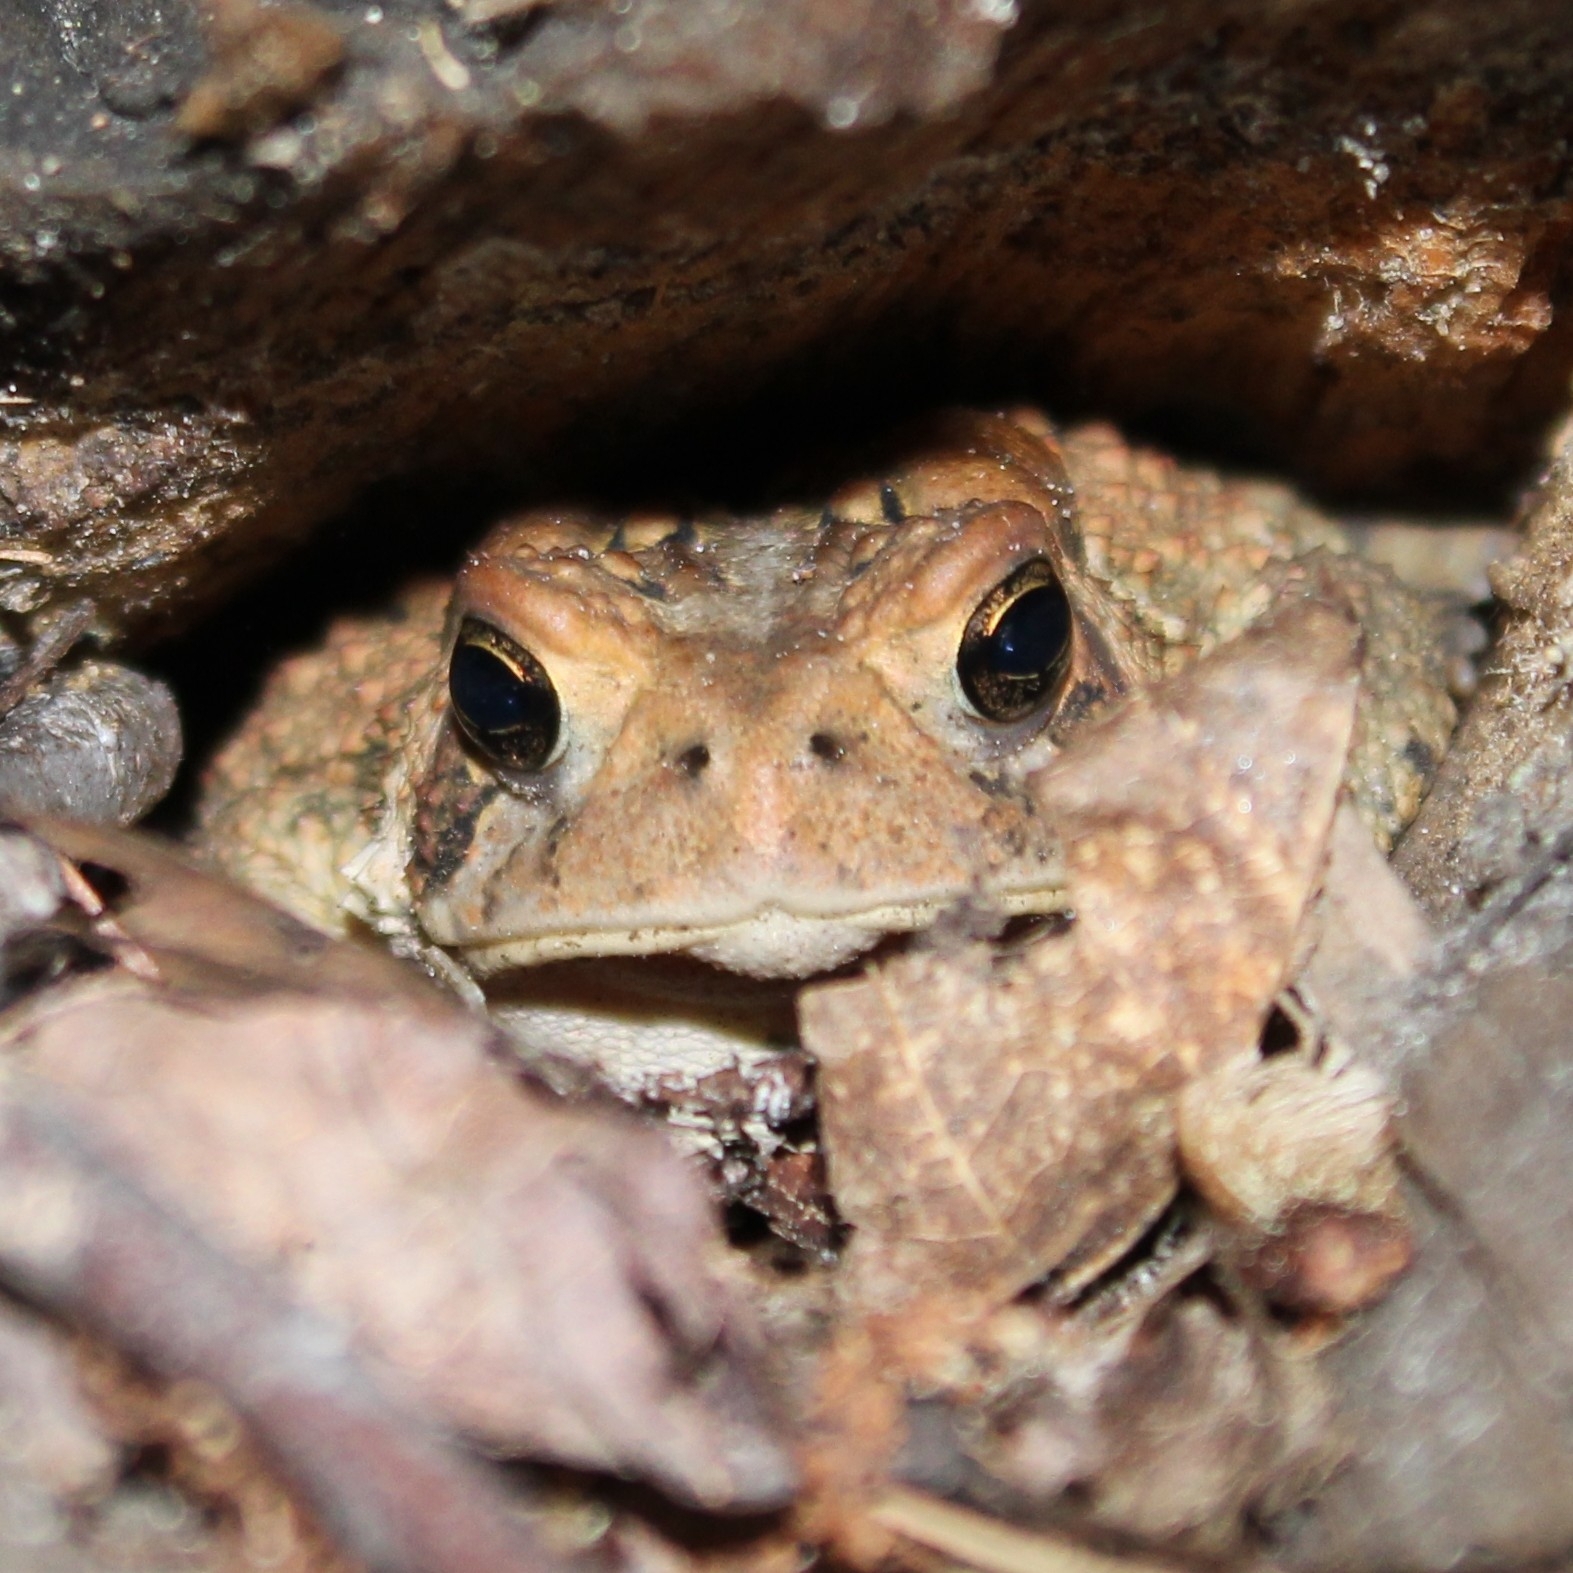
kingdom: Animalia
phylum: Chordata
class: Amphibia
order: Anura
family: Bufonidae
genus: Anaxyrus
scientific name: Anaxyrus americanus
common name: American toad
